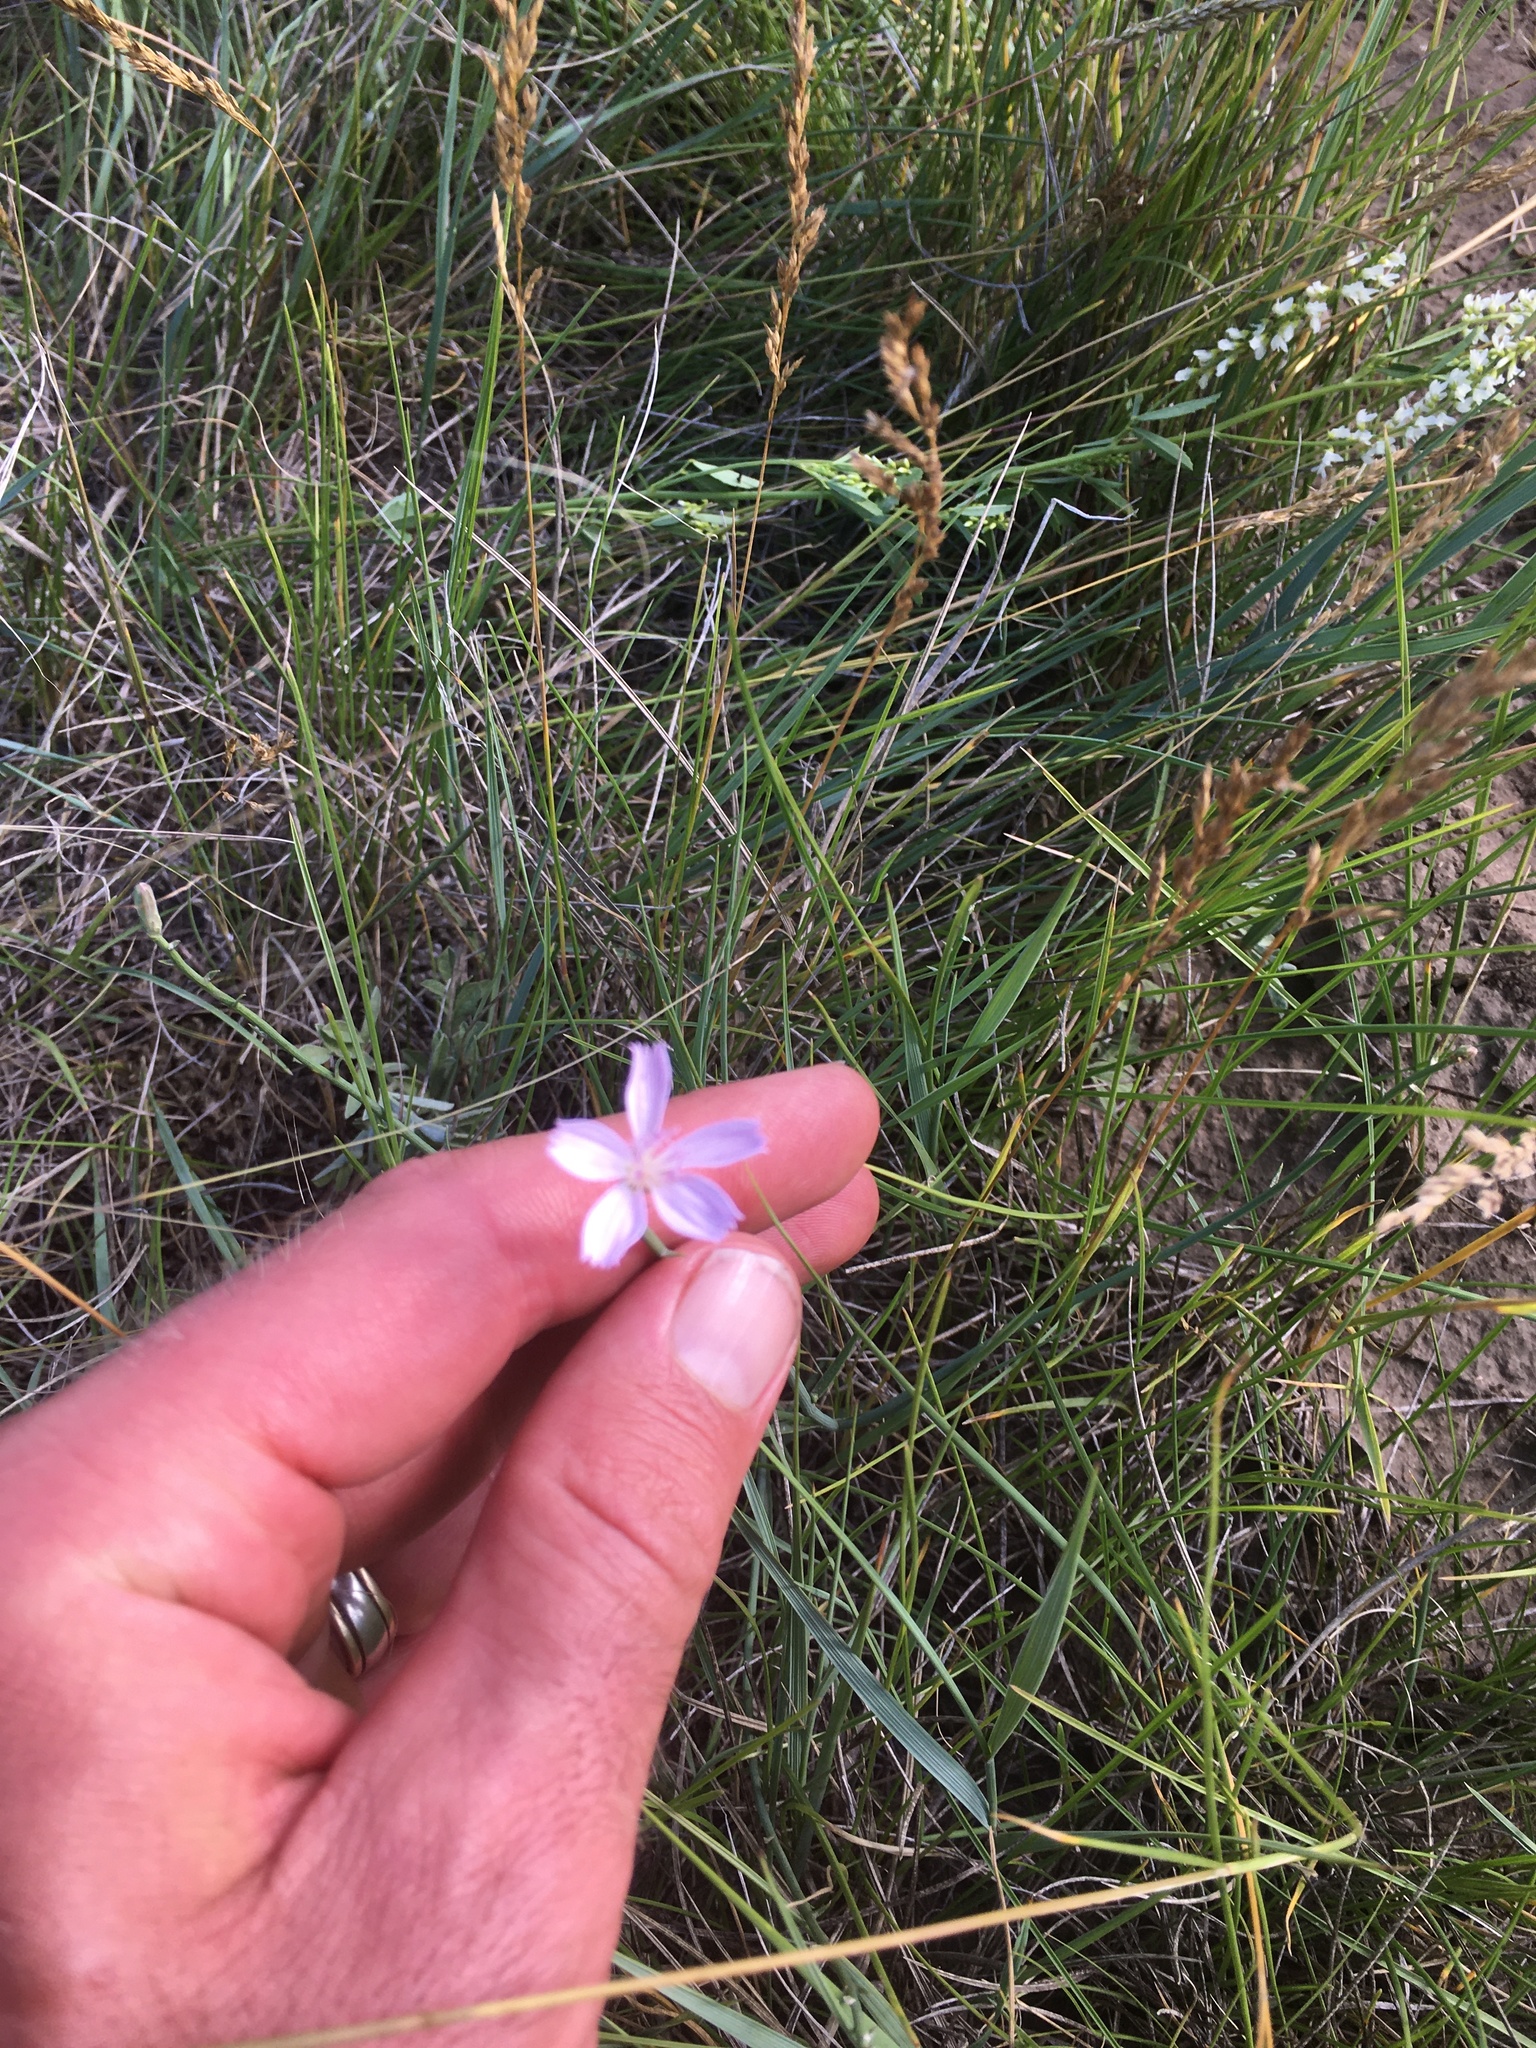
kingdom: Plantae
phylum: Tracheophyta
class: Magnoliopsida
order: Asterales
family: Asteraceae
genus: Lygodesmia
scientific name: Lygodesmia juncea
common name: Common skeletonweed
